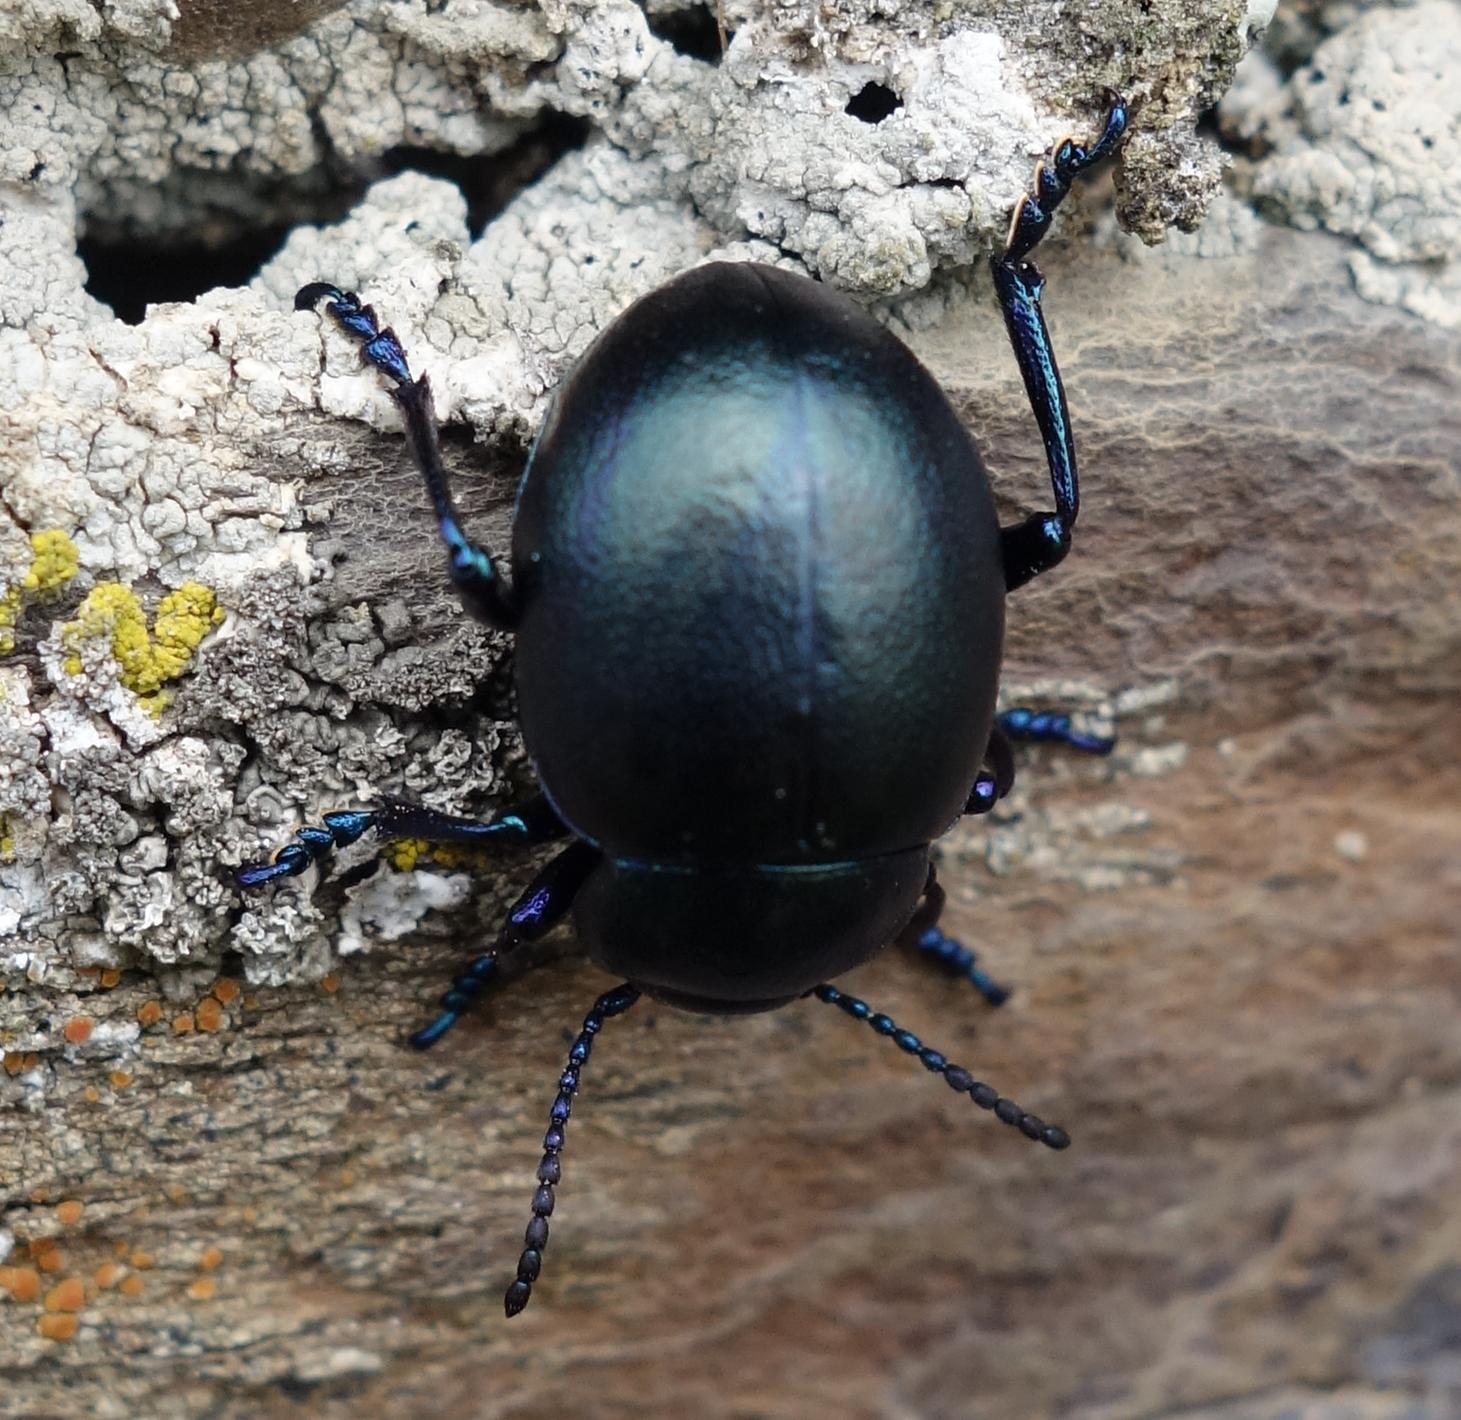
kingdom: Animalia
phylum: Arthropoda
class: Insecta
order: Coleoptera
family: Chrysomelidae
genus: Timarcha
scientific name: Timarcha goettingensis
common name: Small bloody-nosed beetle
